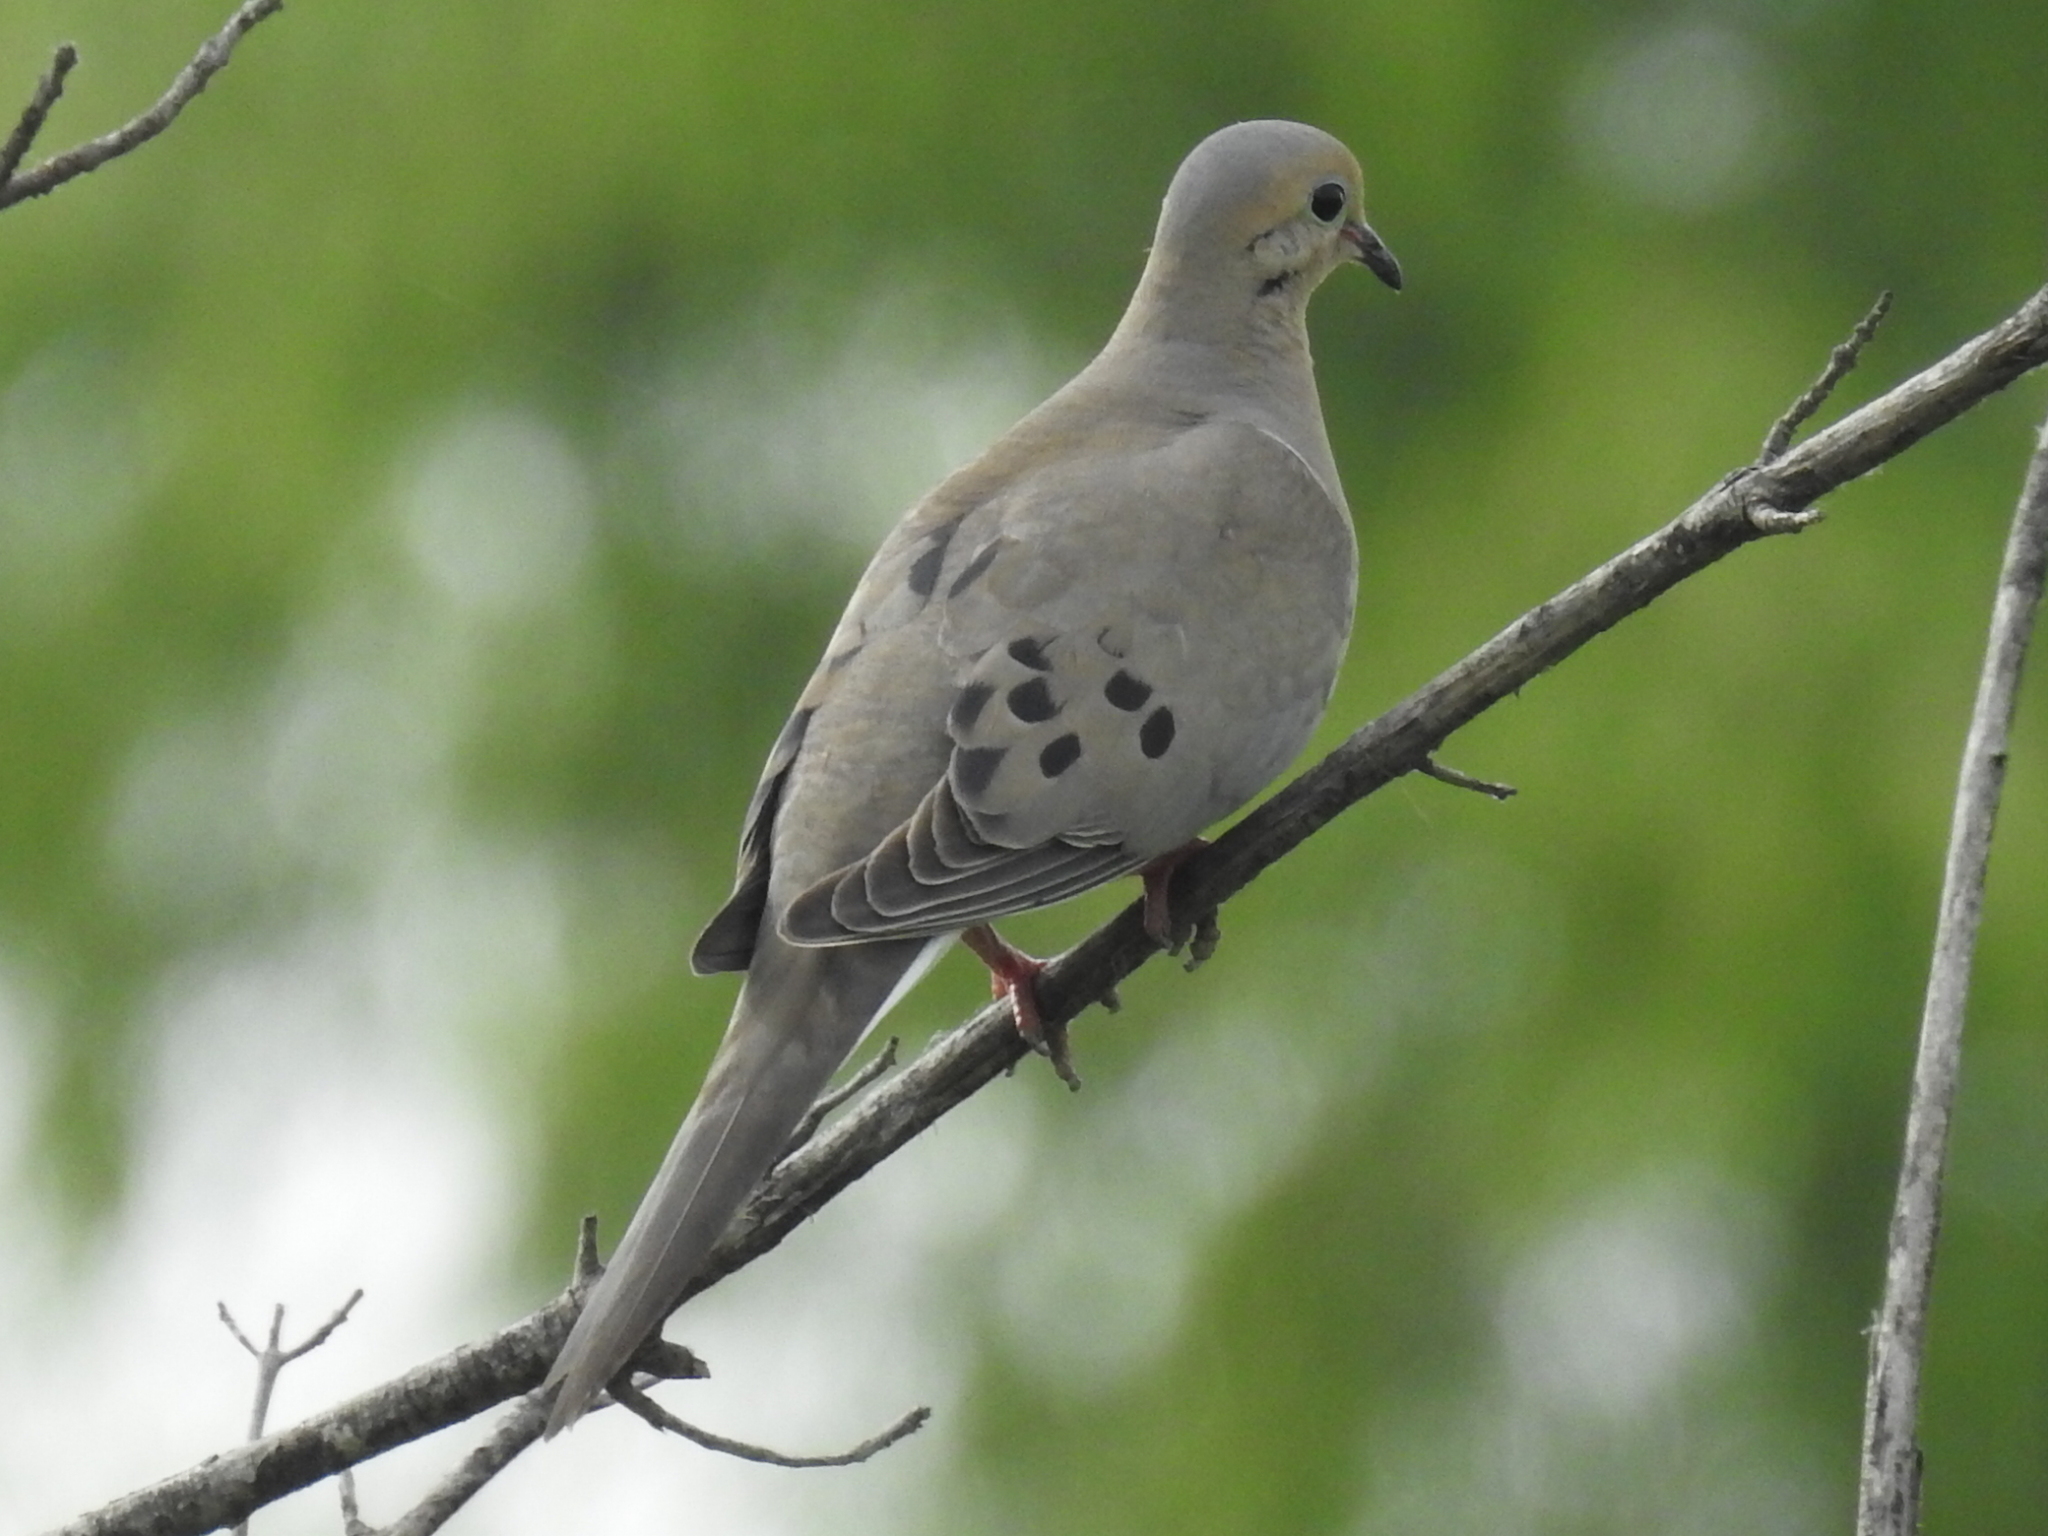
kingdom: Animalia
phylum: Chordata
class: Aves
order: Columbiformes
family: Columbidae
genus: Zenaida
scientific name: Zenaida macroura
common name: Mourning dove
